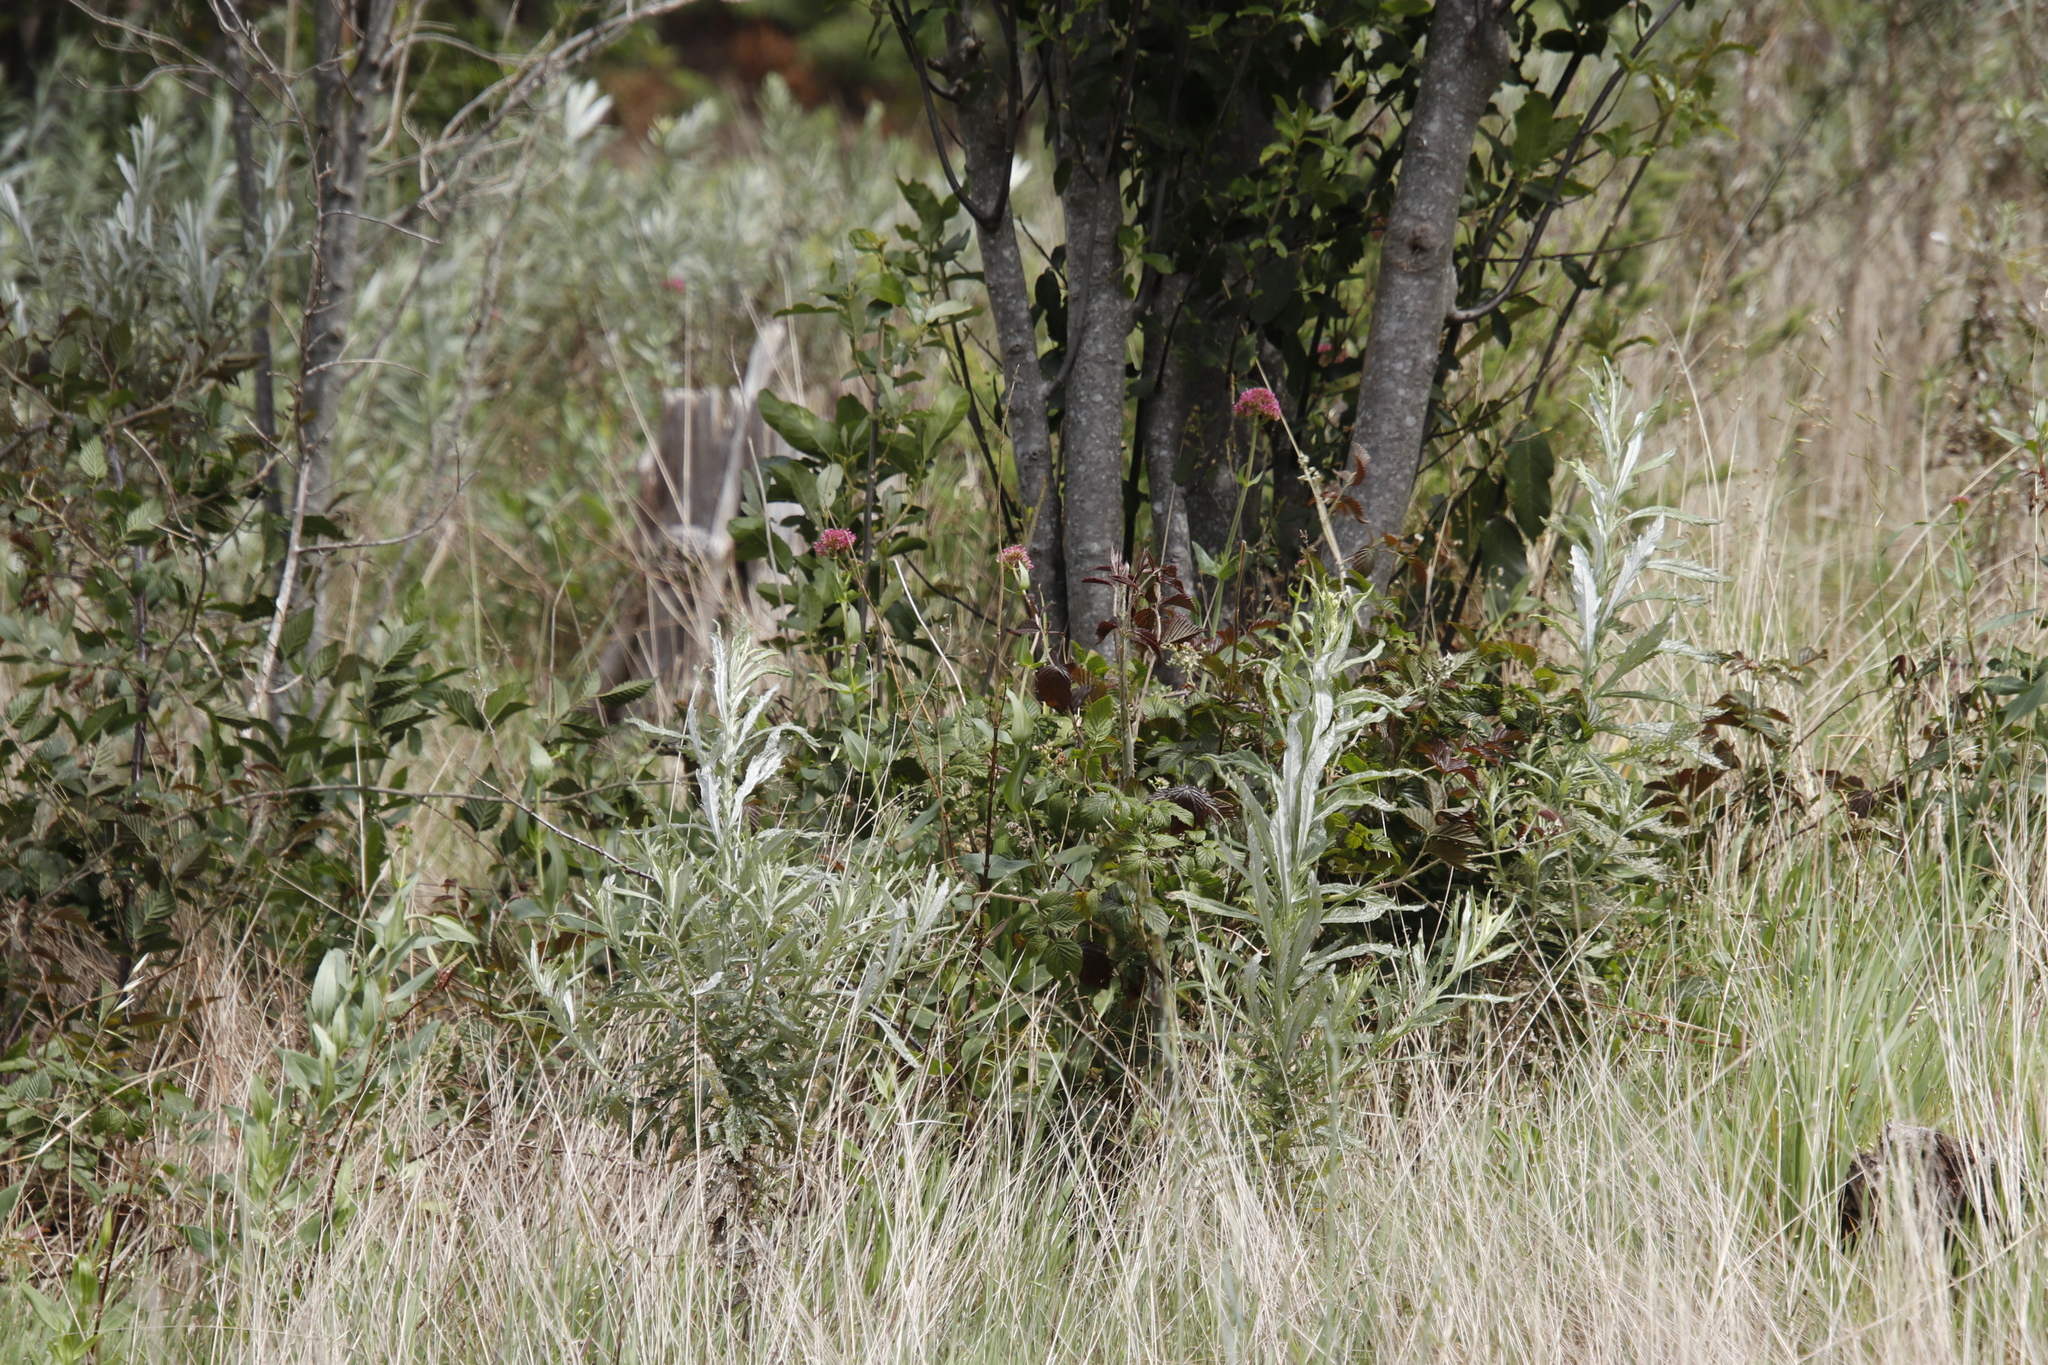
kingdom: Plantae
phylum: Tracheophyta
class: Magnoliopsida
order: Dipsacales
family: Caprifoliaceae
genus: Centranthus
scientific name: Centranthus ruber
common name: Red valerian
